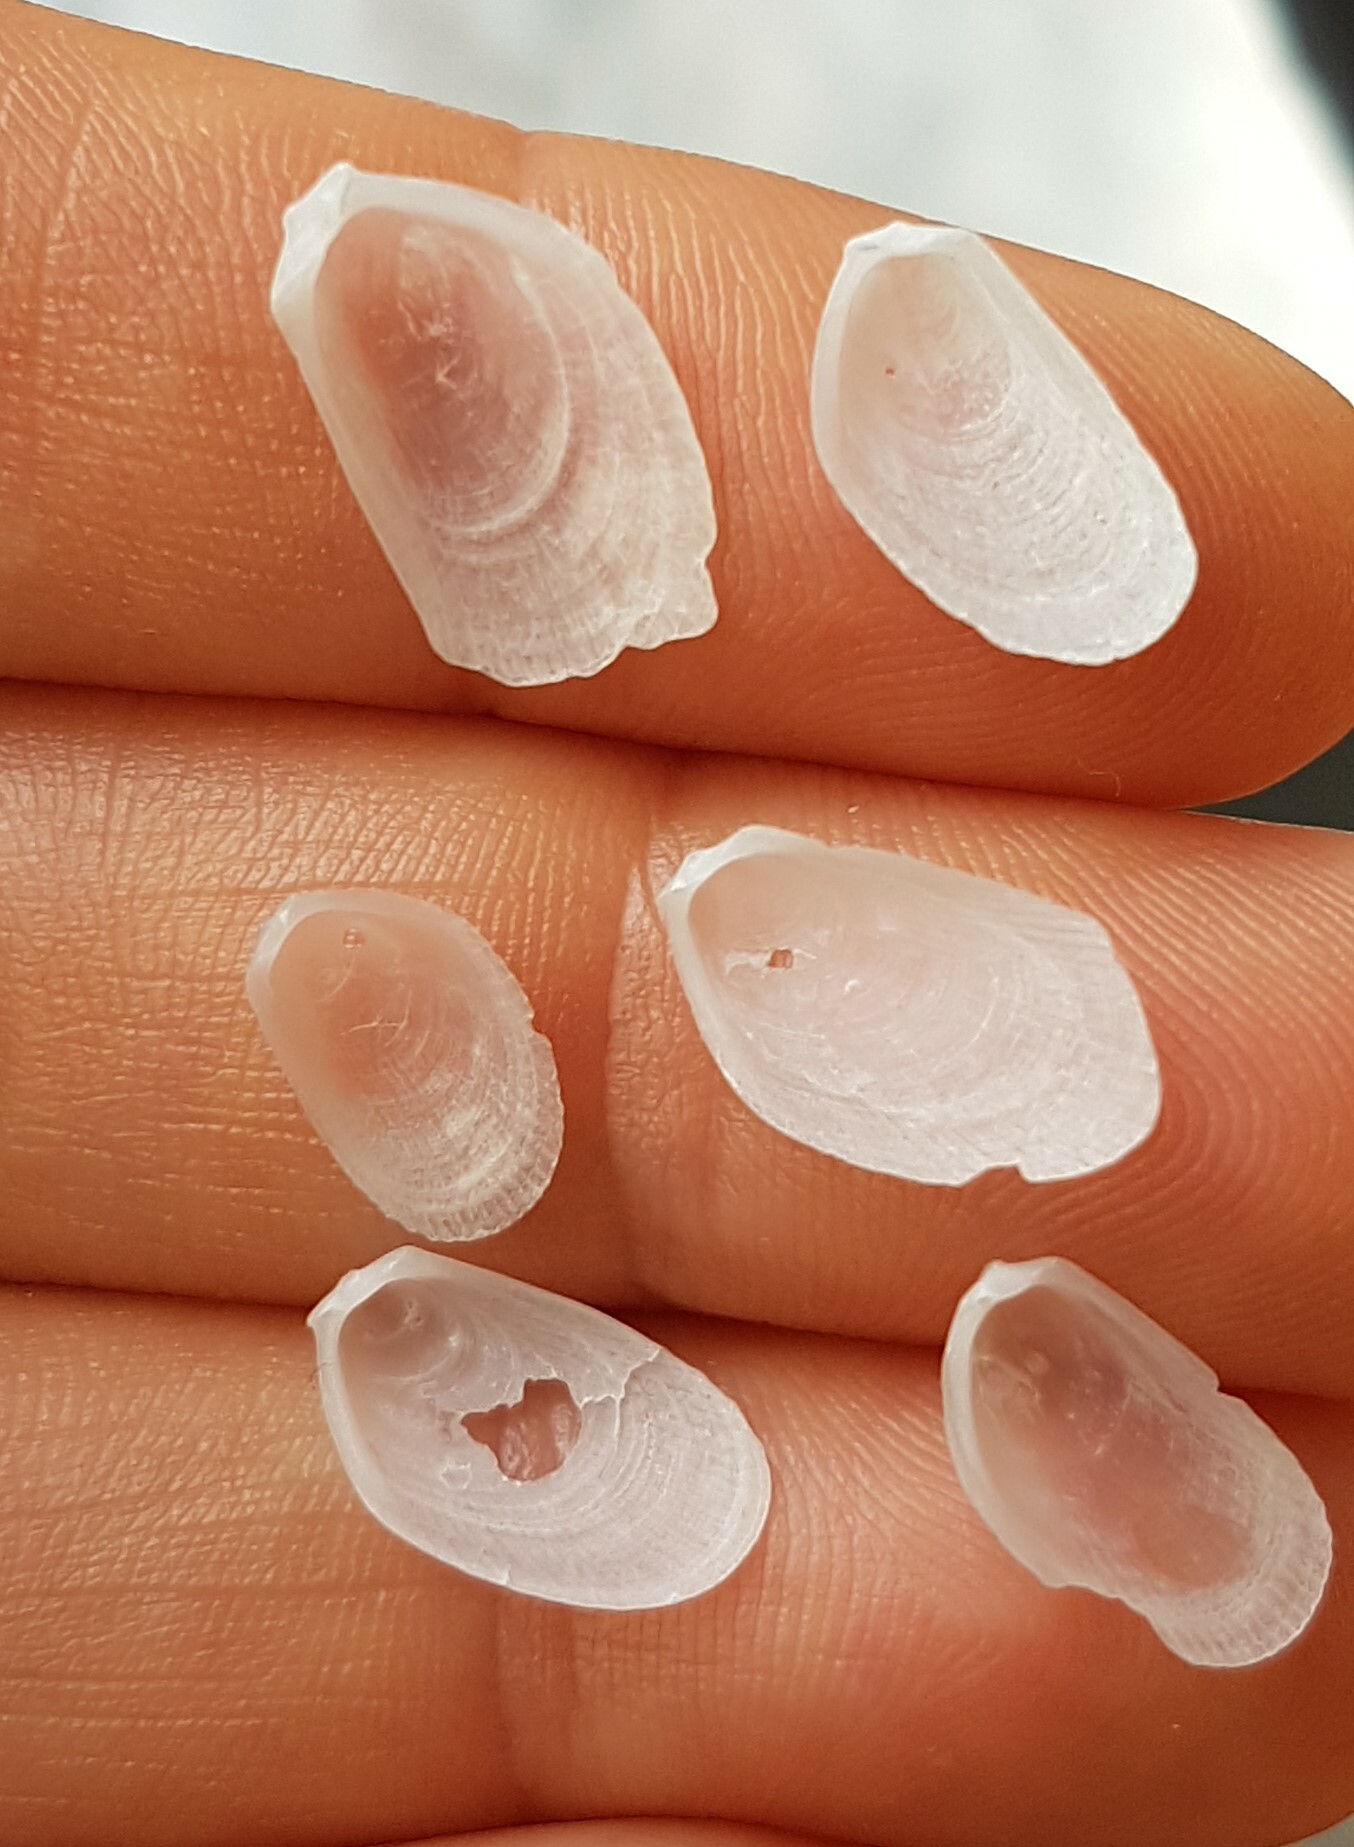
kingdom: Animalia
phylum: Mollusca
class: Bivalvia
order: Limida
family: Limidae
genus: Limaria
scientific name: Limaria hians
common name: Gaping file shale
